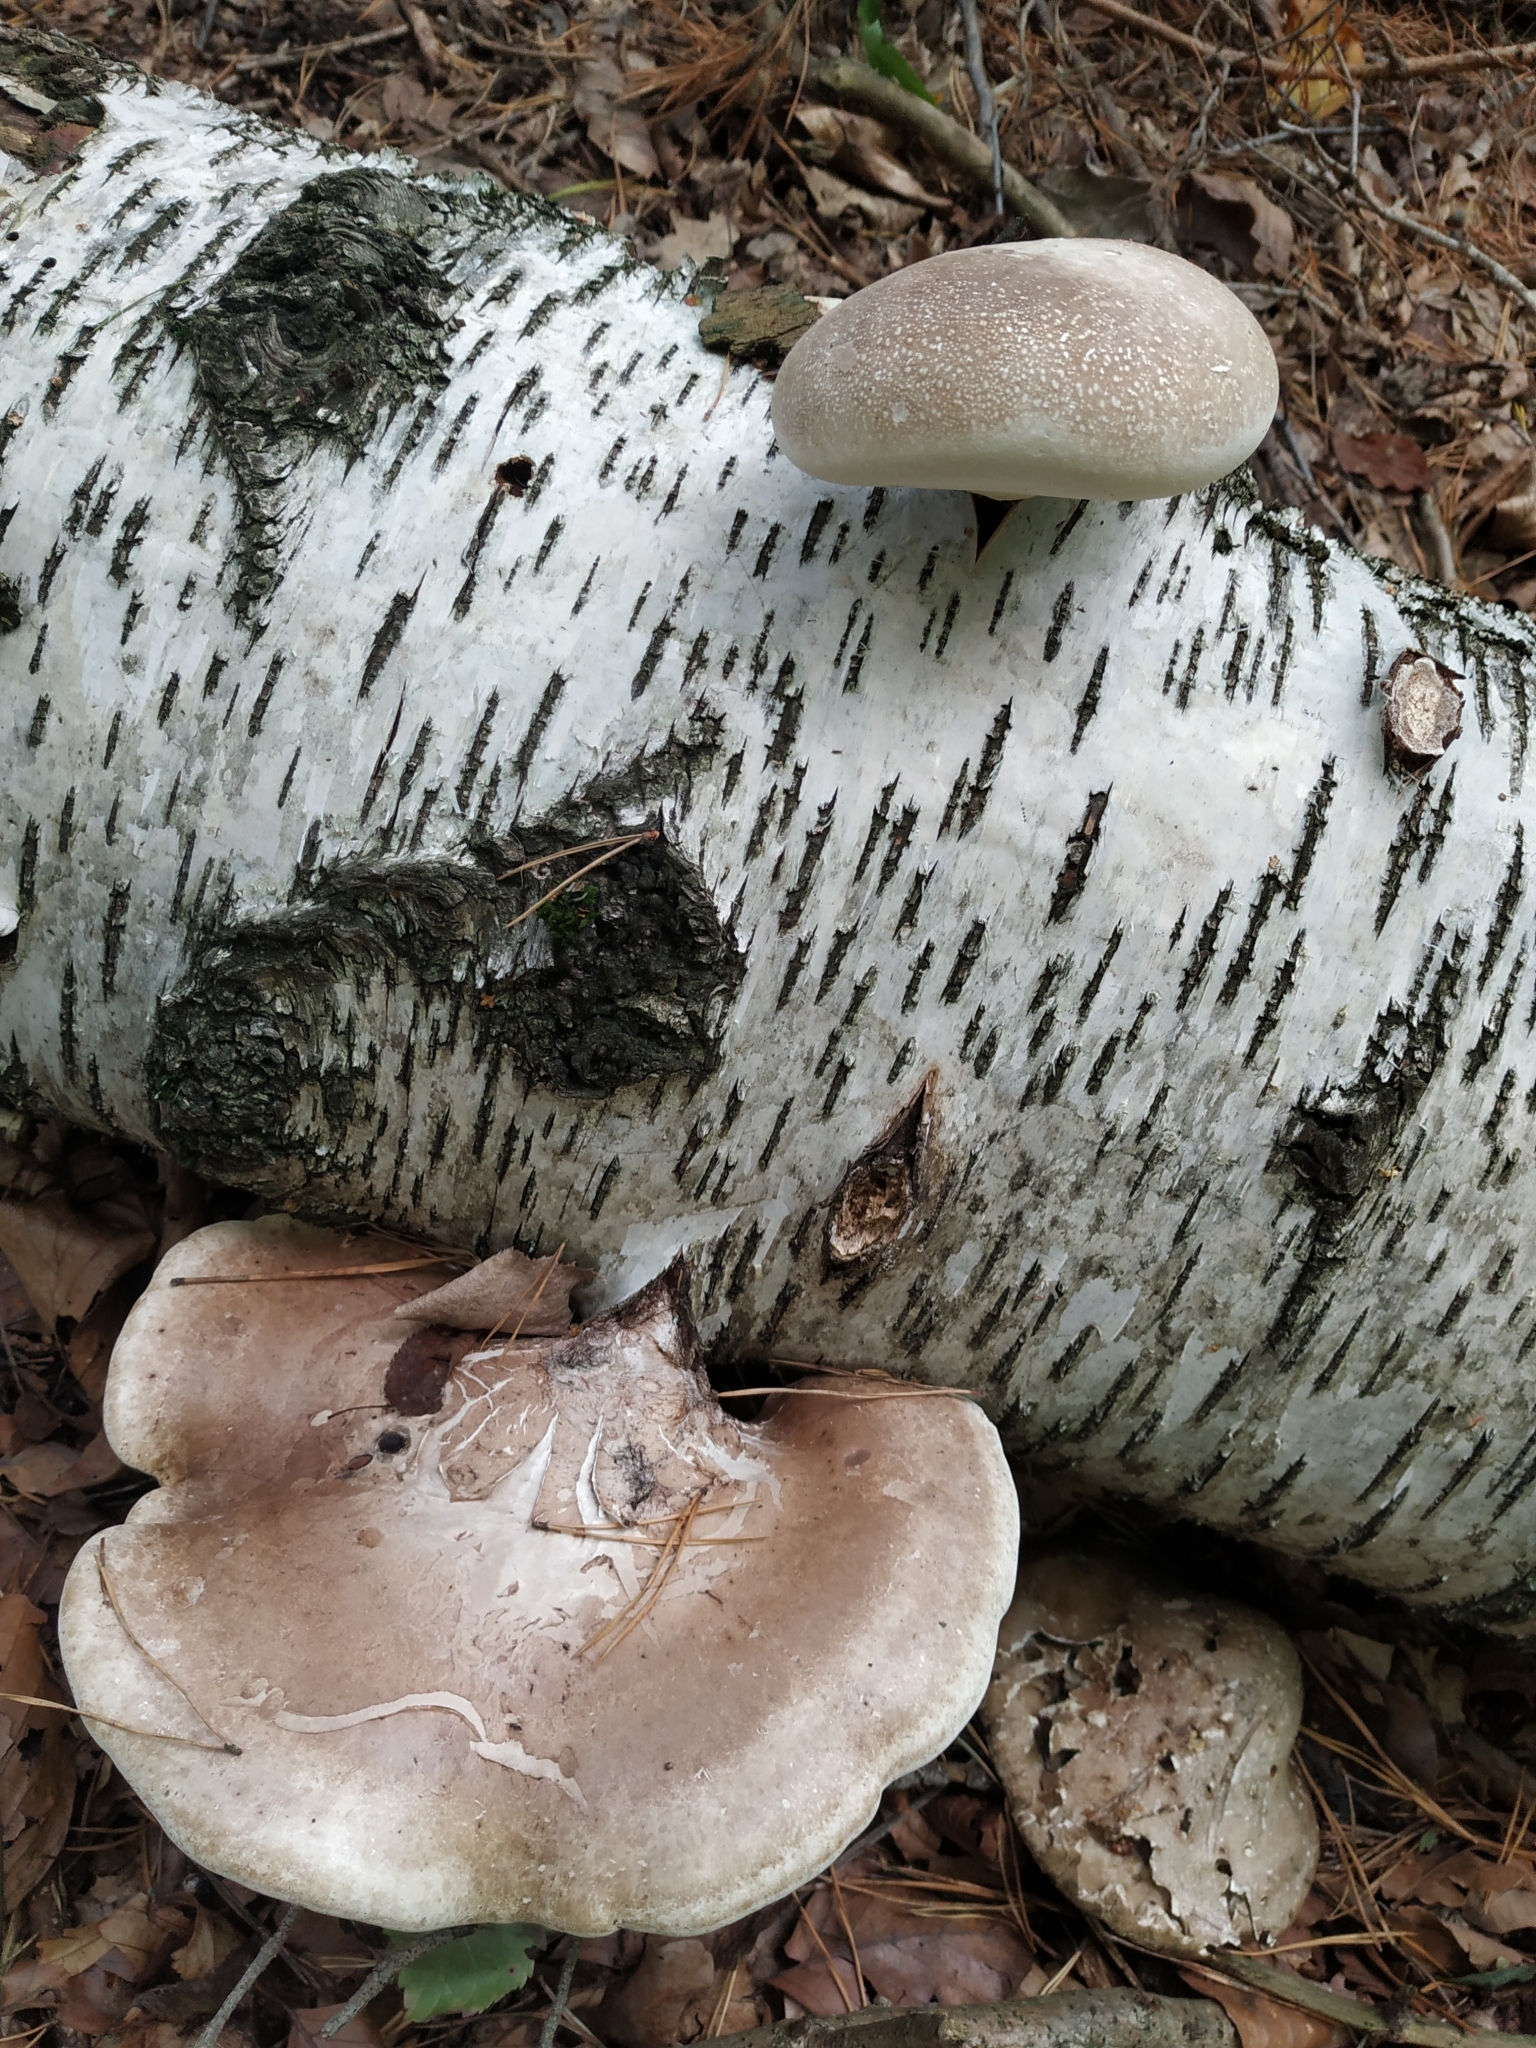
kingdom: Fungi
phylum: Basidiomycota
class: Agaricomycetes
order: Polyporales
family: Fomitopsidaceae
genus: Fomitopsis
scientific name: Fomitopsis betulina
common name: Birch polypore
